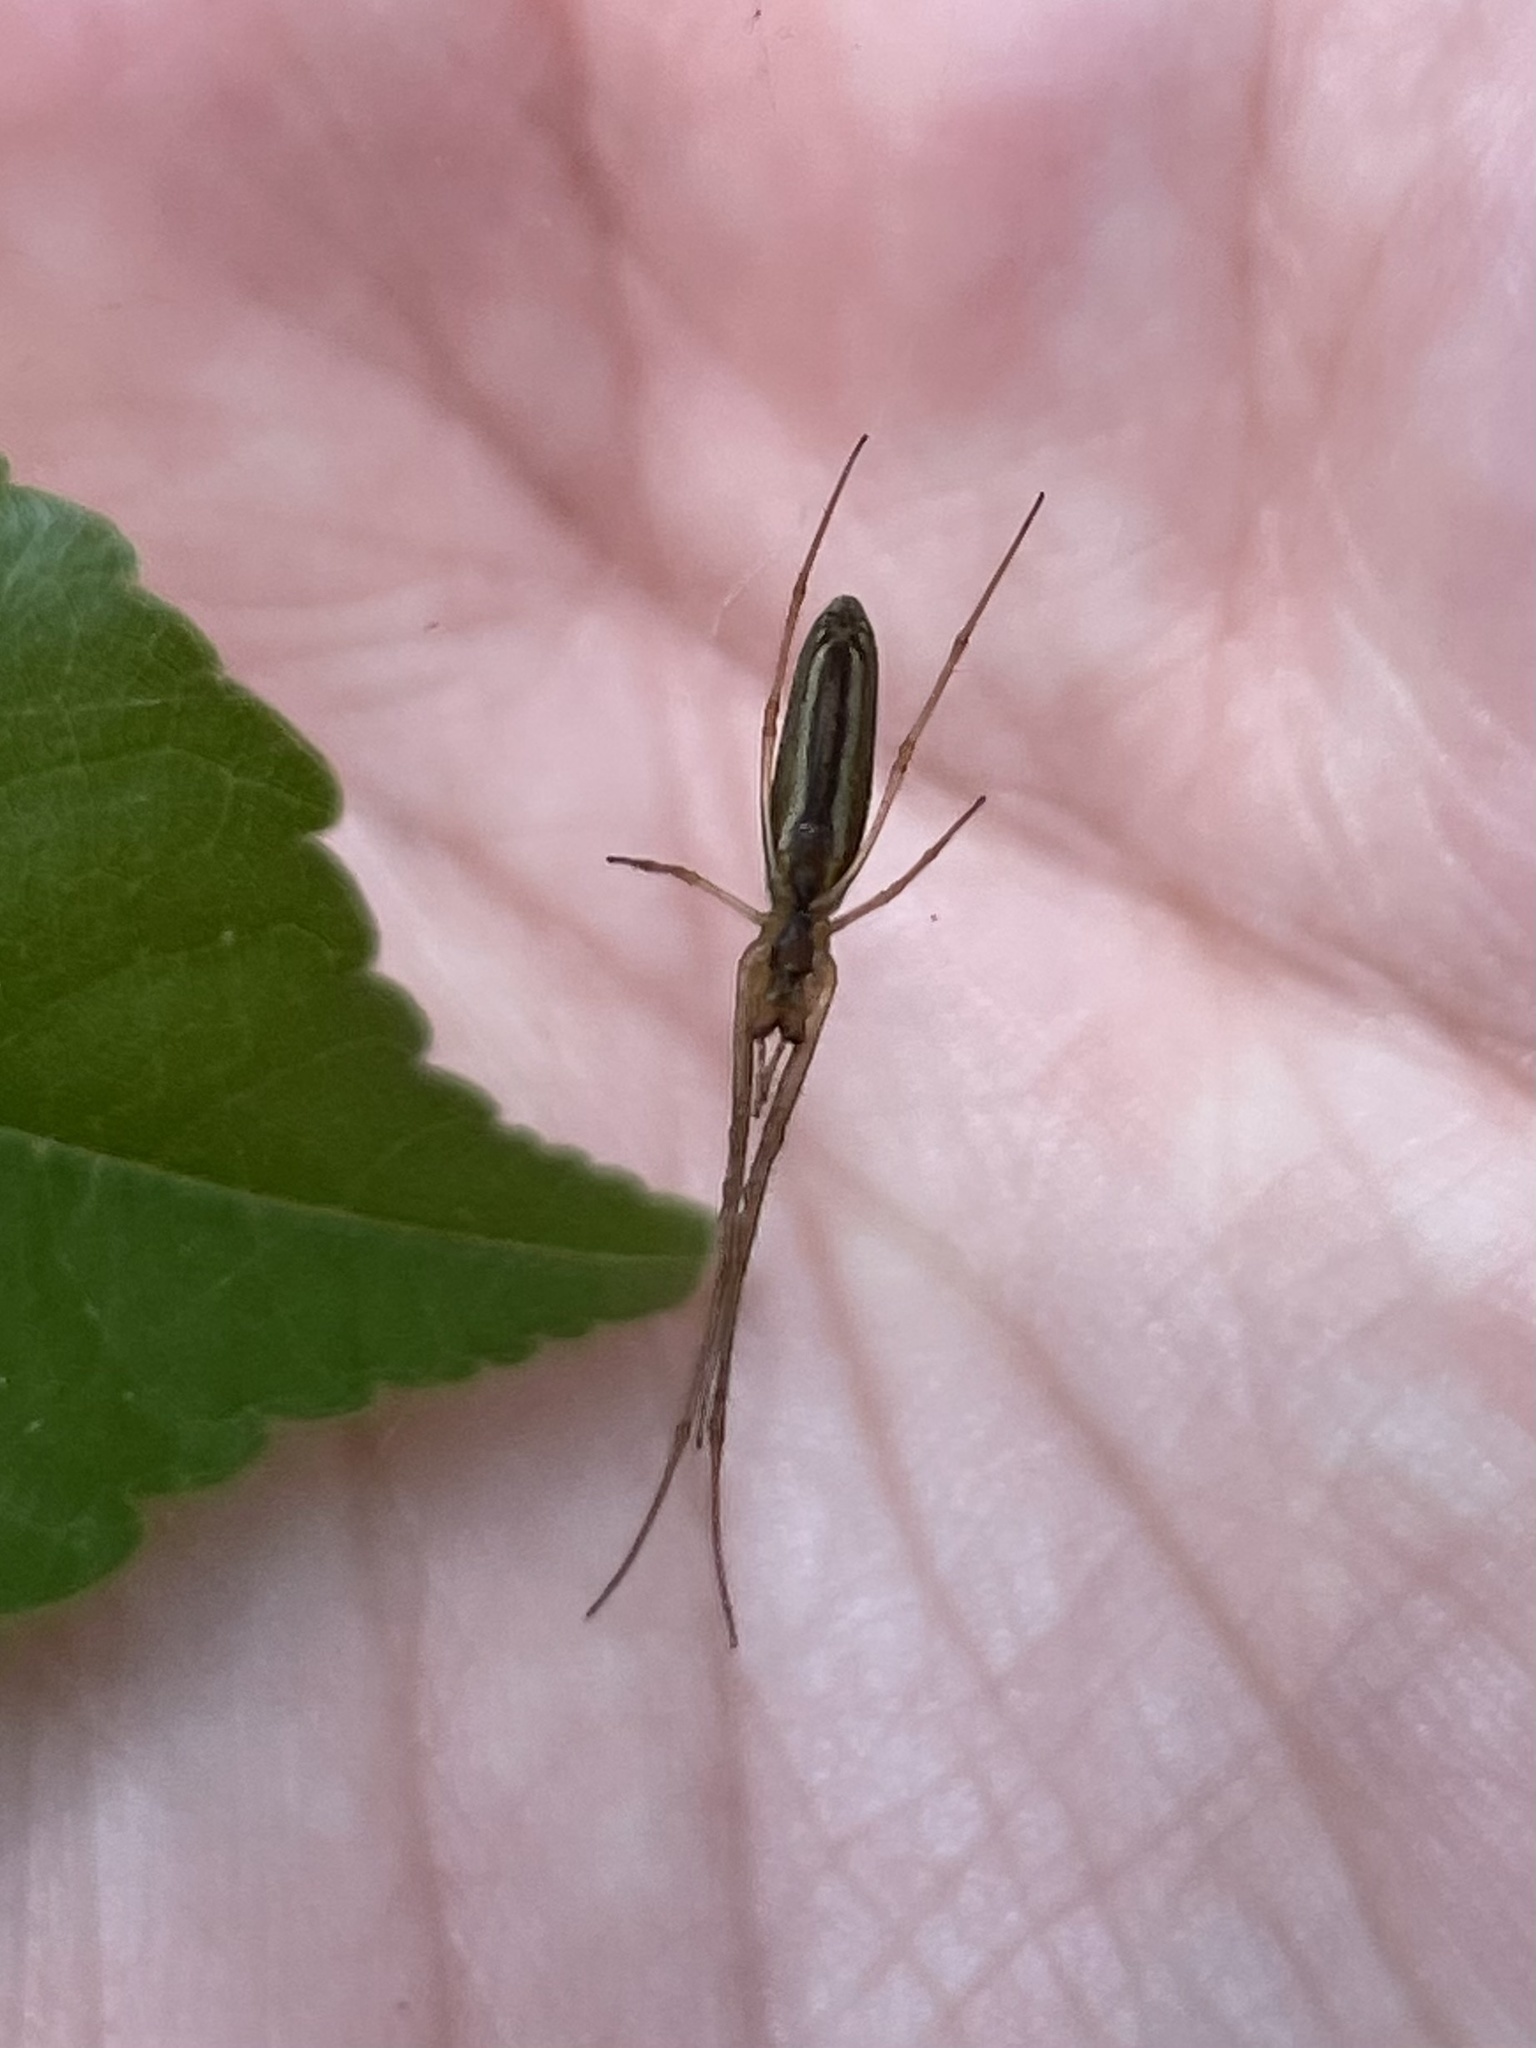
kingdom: Animalia
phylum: Arthropoda
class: Arachnida
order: Araneae
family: Tetragnathidae
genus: Tetragnatha
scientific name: Tetragnatha
